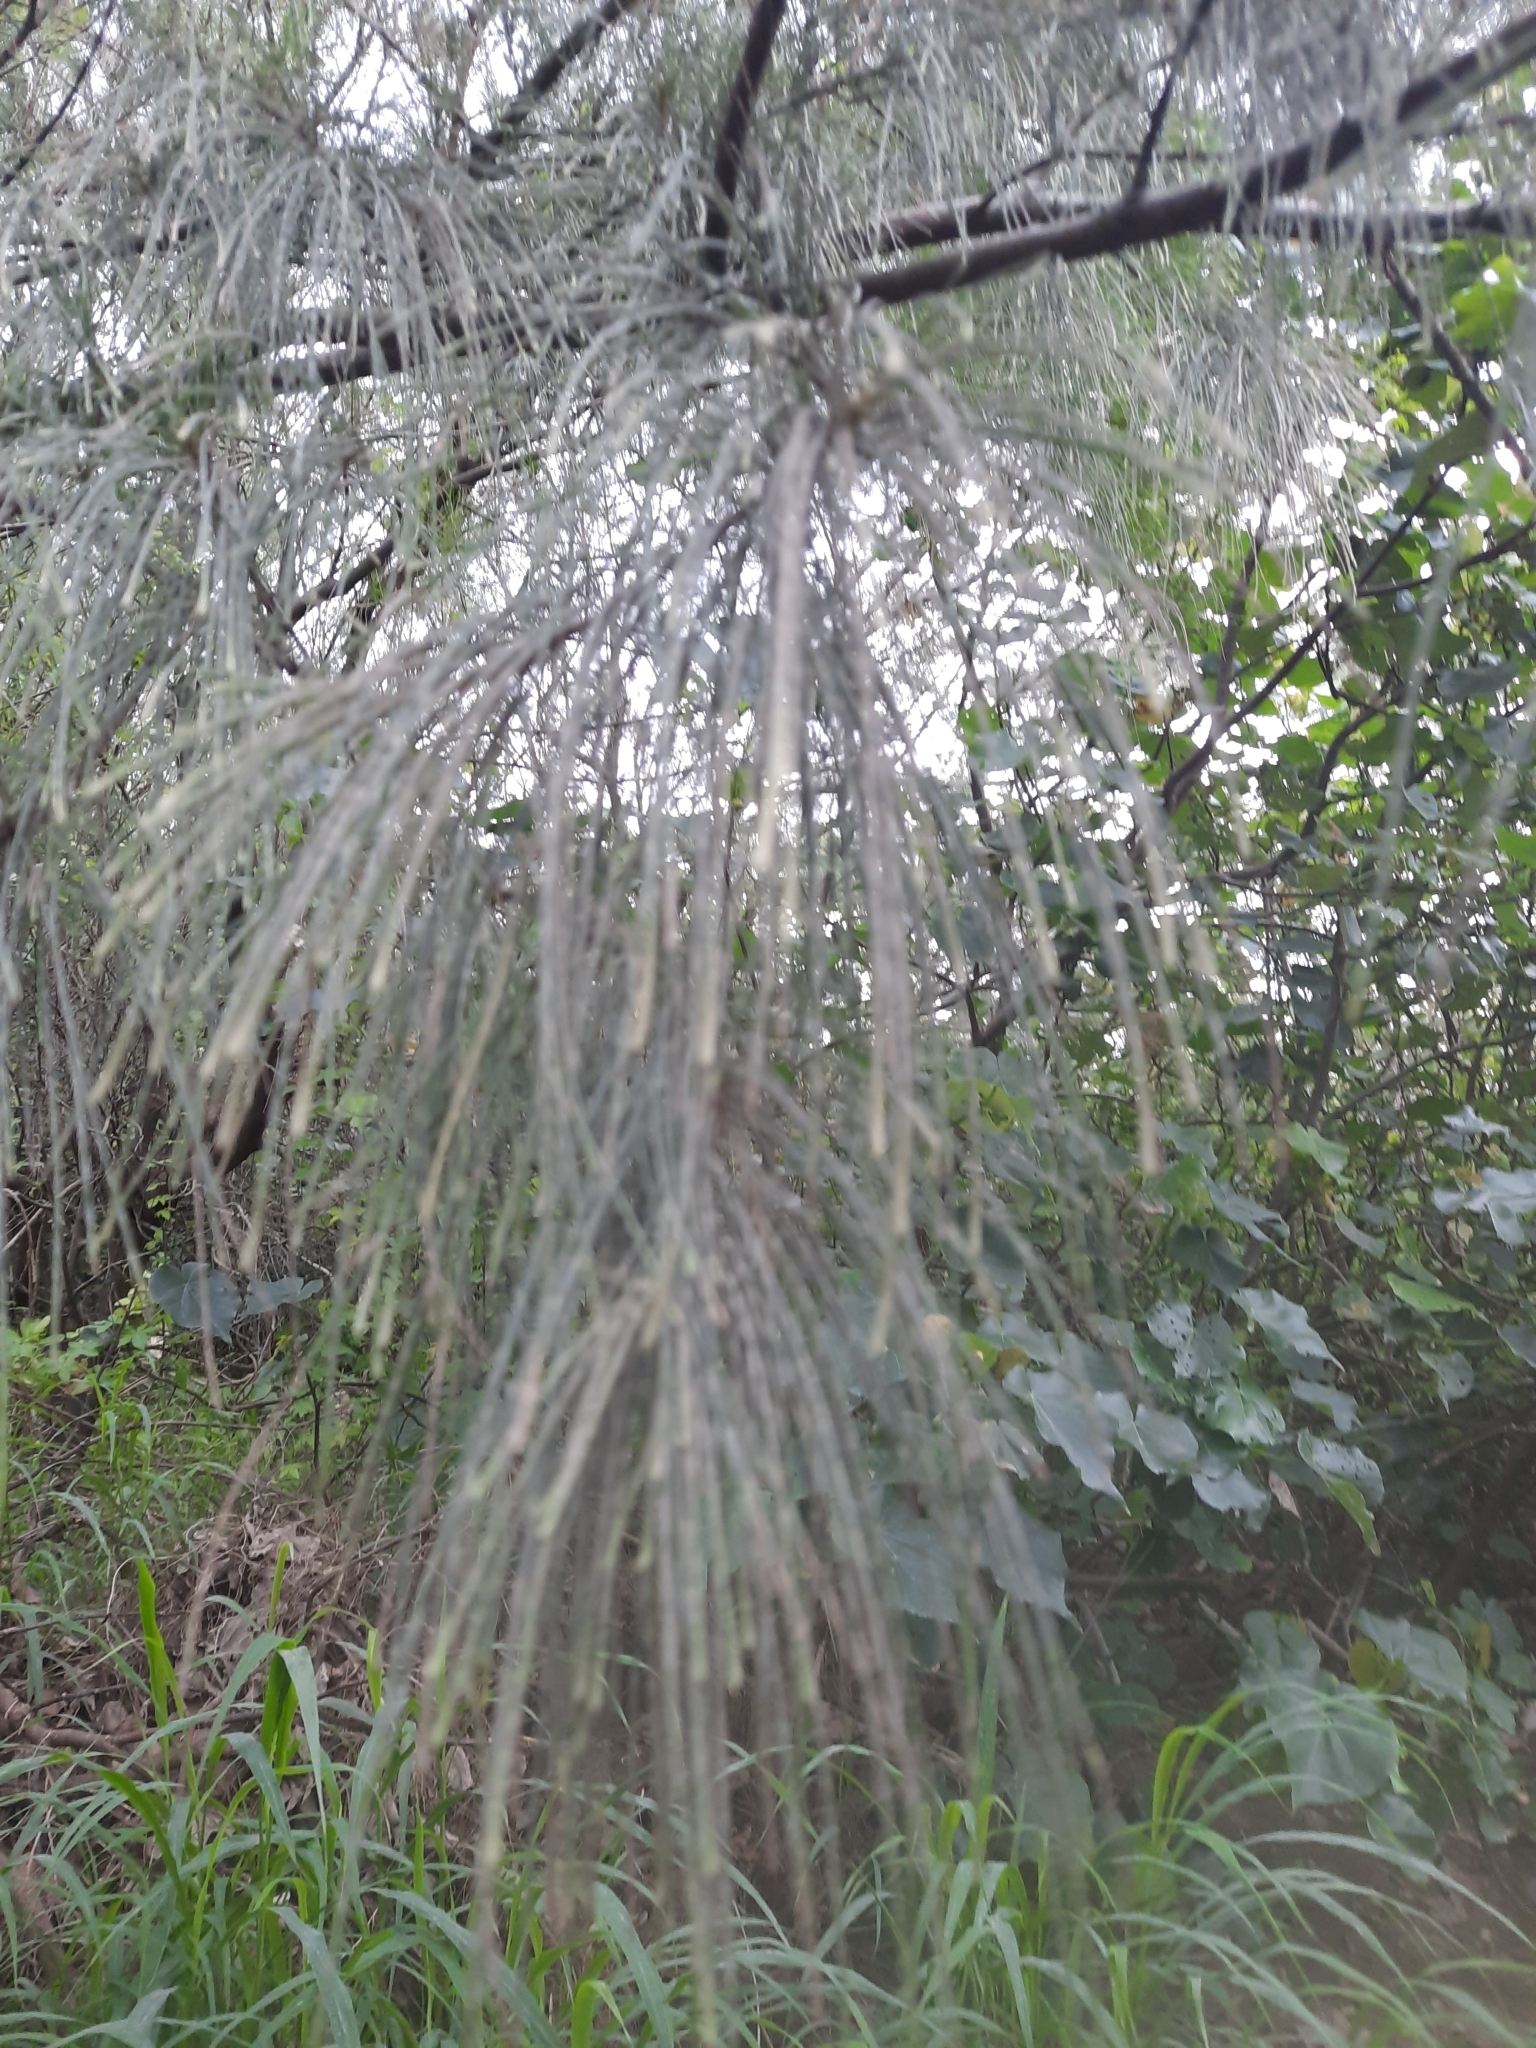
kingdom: Plantae
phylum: Tracheophyta
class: Magnoliopsida
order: Fagales
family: Casuarinaceae
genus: Casuarina
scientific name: Casuarina equisetifolia
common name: Beach sheoak
